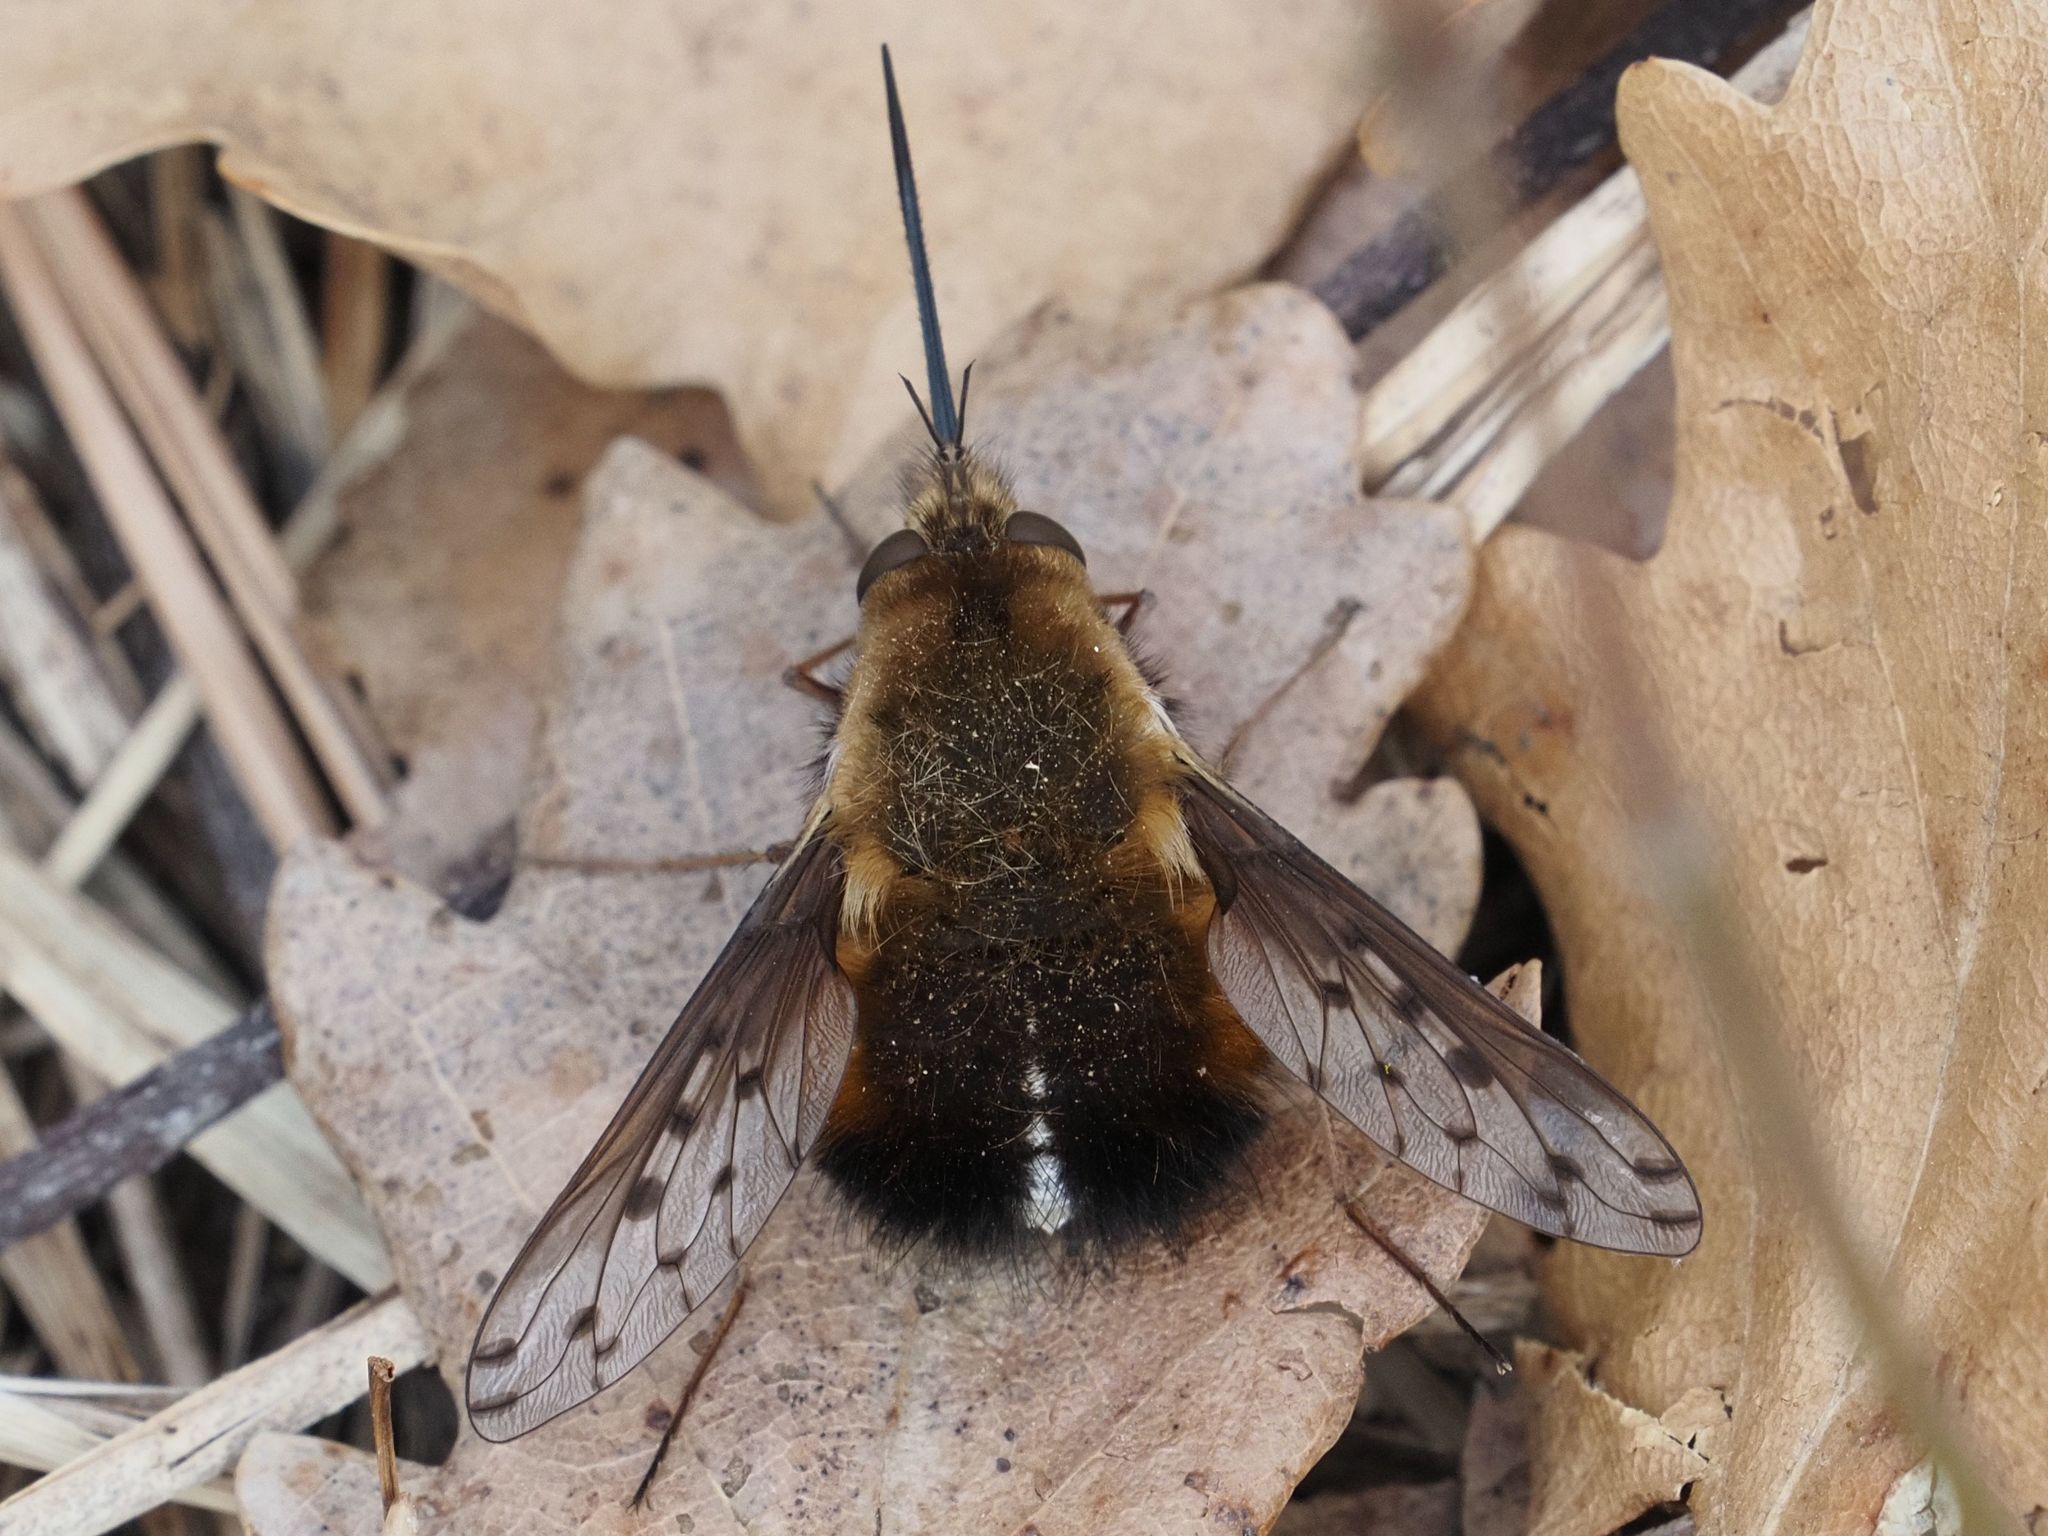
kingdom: Animalia
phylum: Arthropoda
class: Insecta
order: Diptera
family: Bombyliidae
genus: Bombylius
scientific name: Bombylius discolor
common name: Dotted bee-fly
